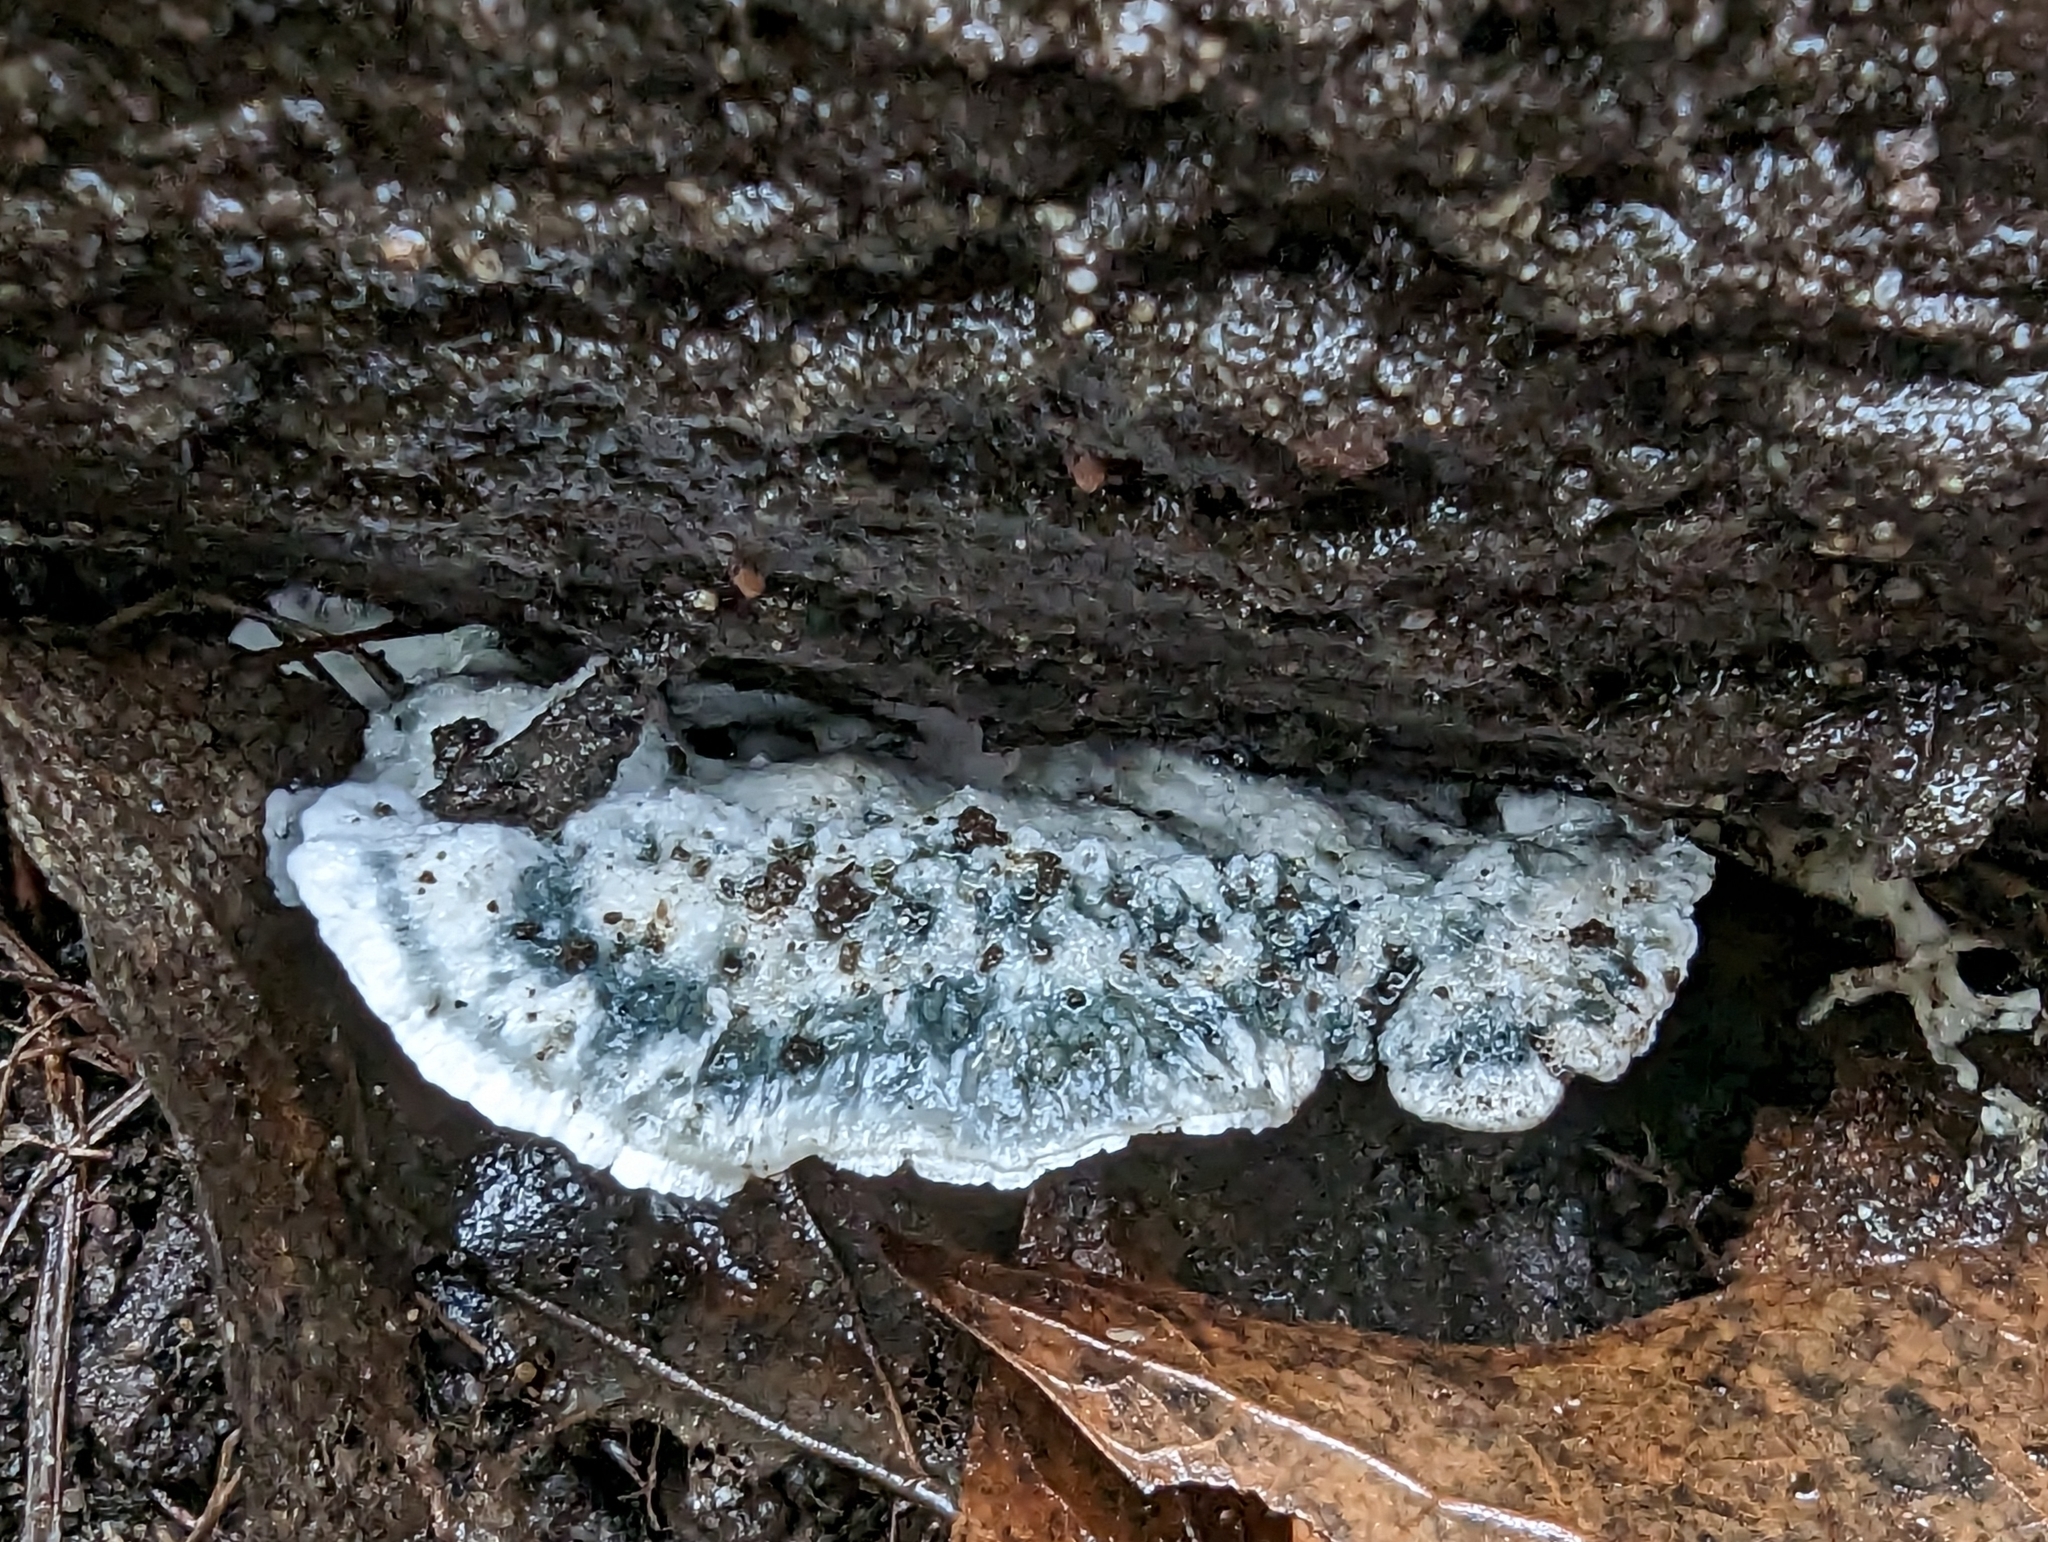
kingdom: Fungi
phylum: Basidiomycota
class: Agaricomycetes
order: Polyporales
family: Polyporaceae
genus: Cyanosporus
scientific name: Cyanosporus caesius
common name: Blue cheese polypore
